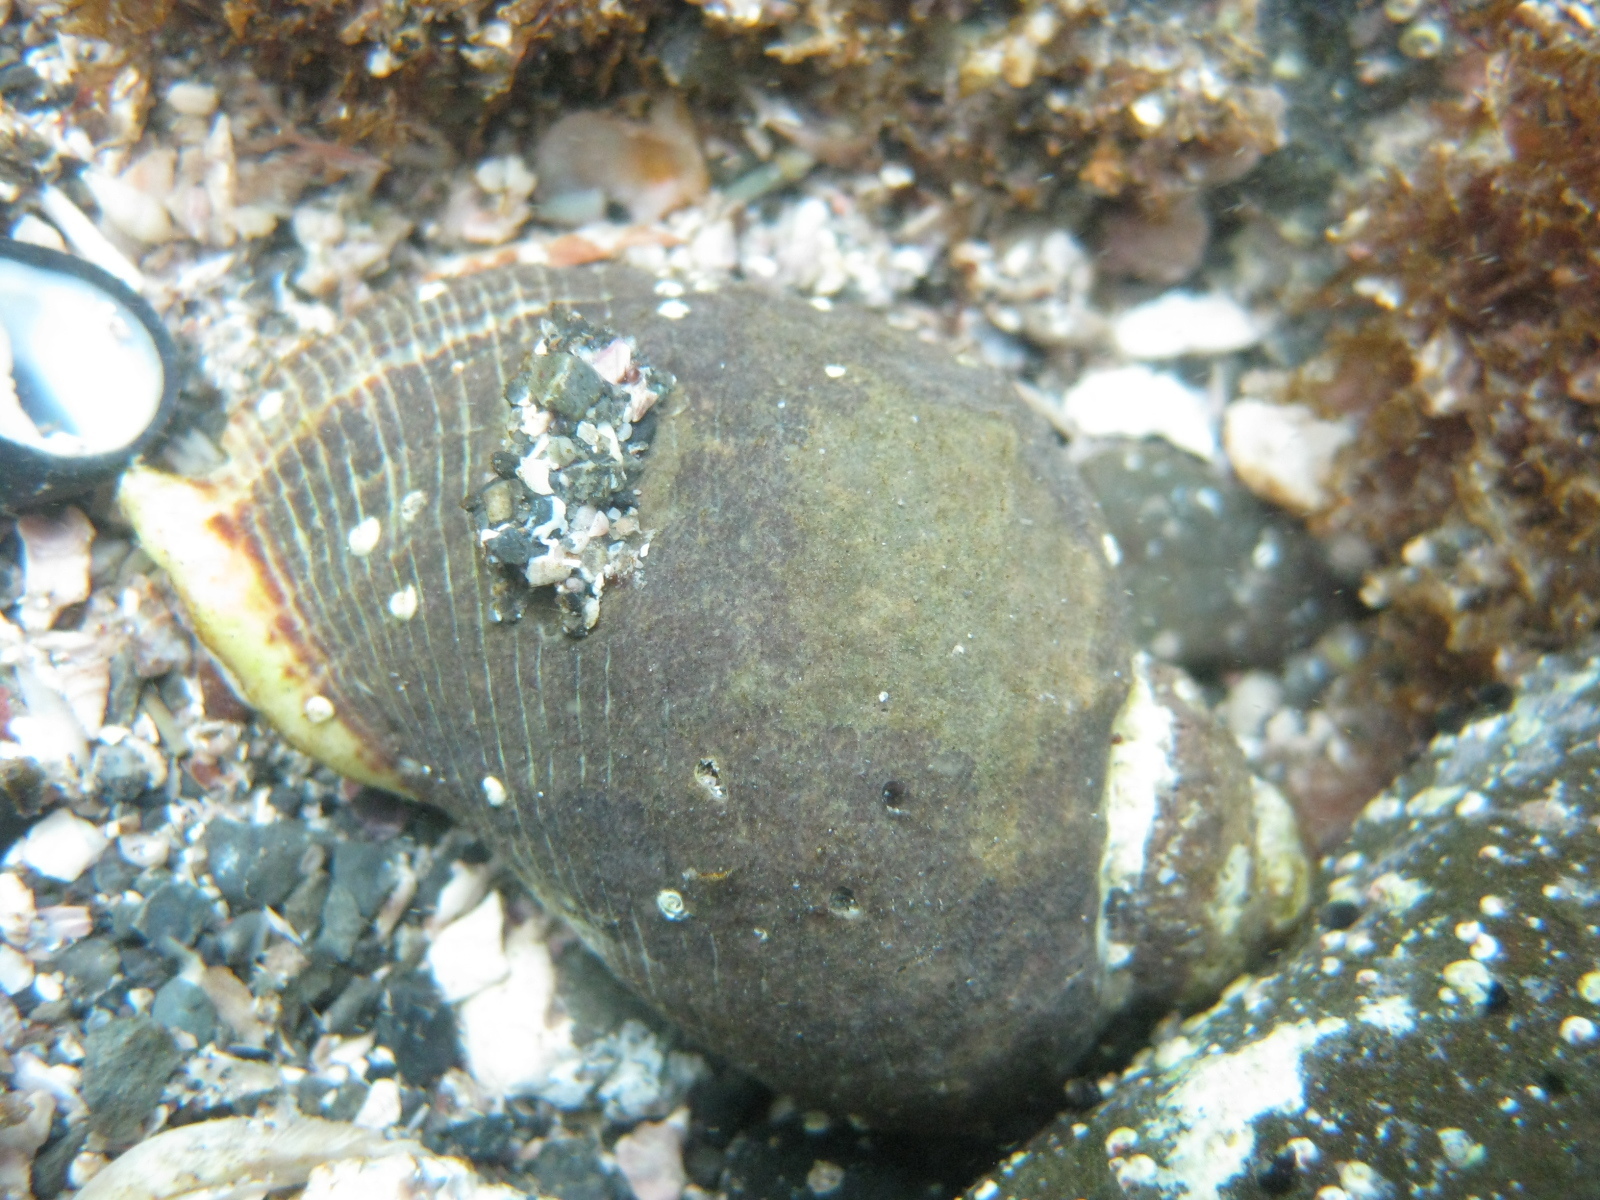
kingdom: Animalia
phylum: Mollusca
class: Gastropoda
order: Neogastropoda
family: Muricidae
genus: Haustrum
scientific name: Haustrum haustorium
